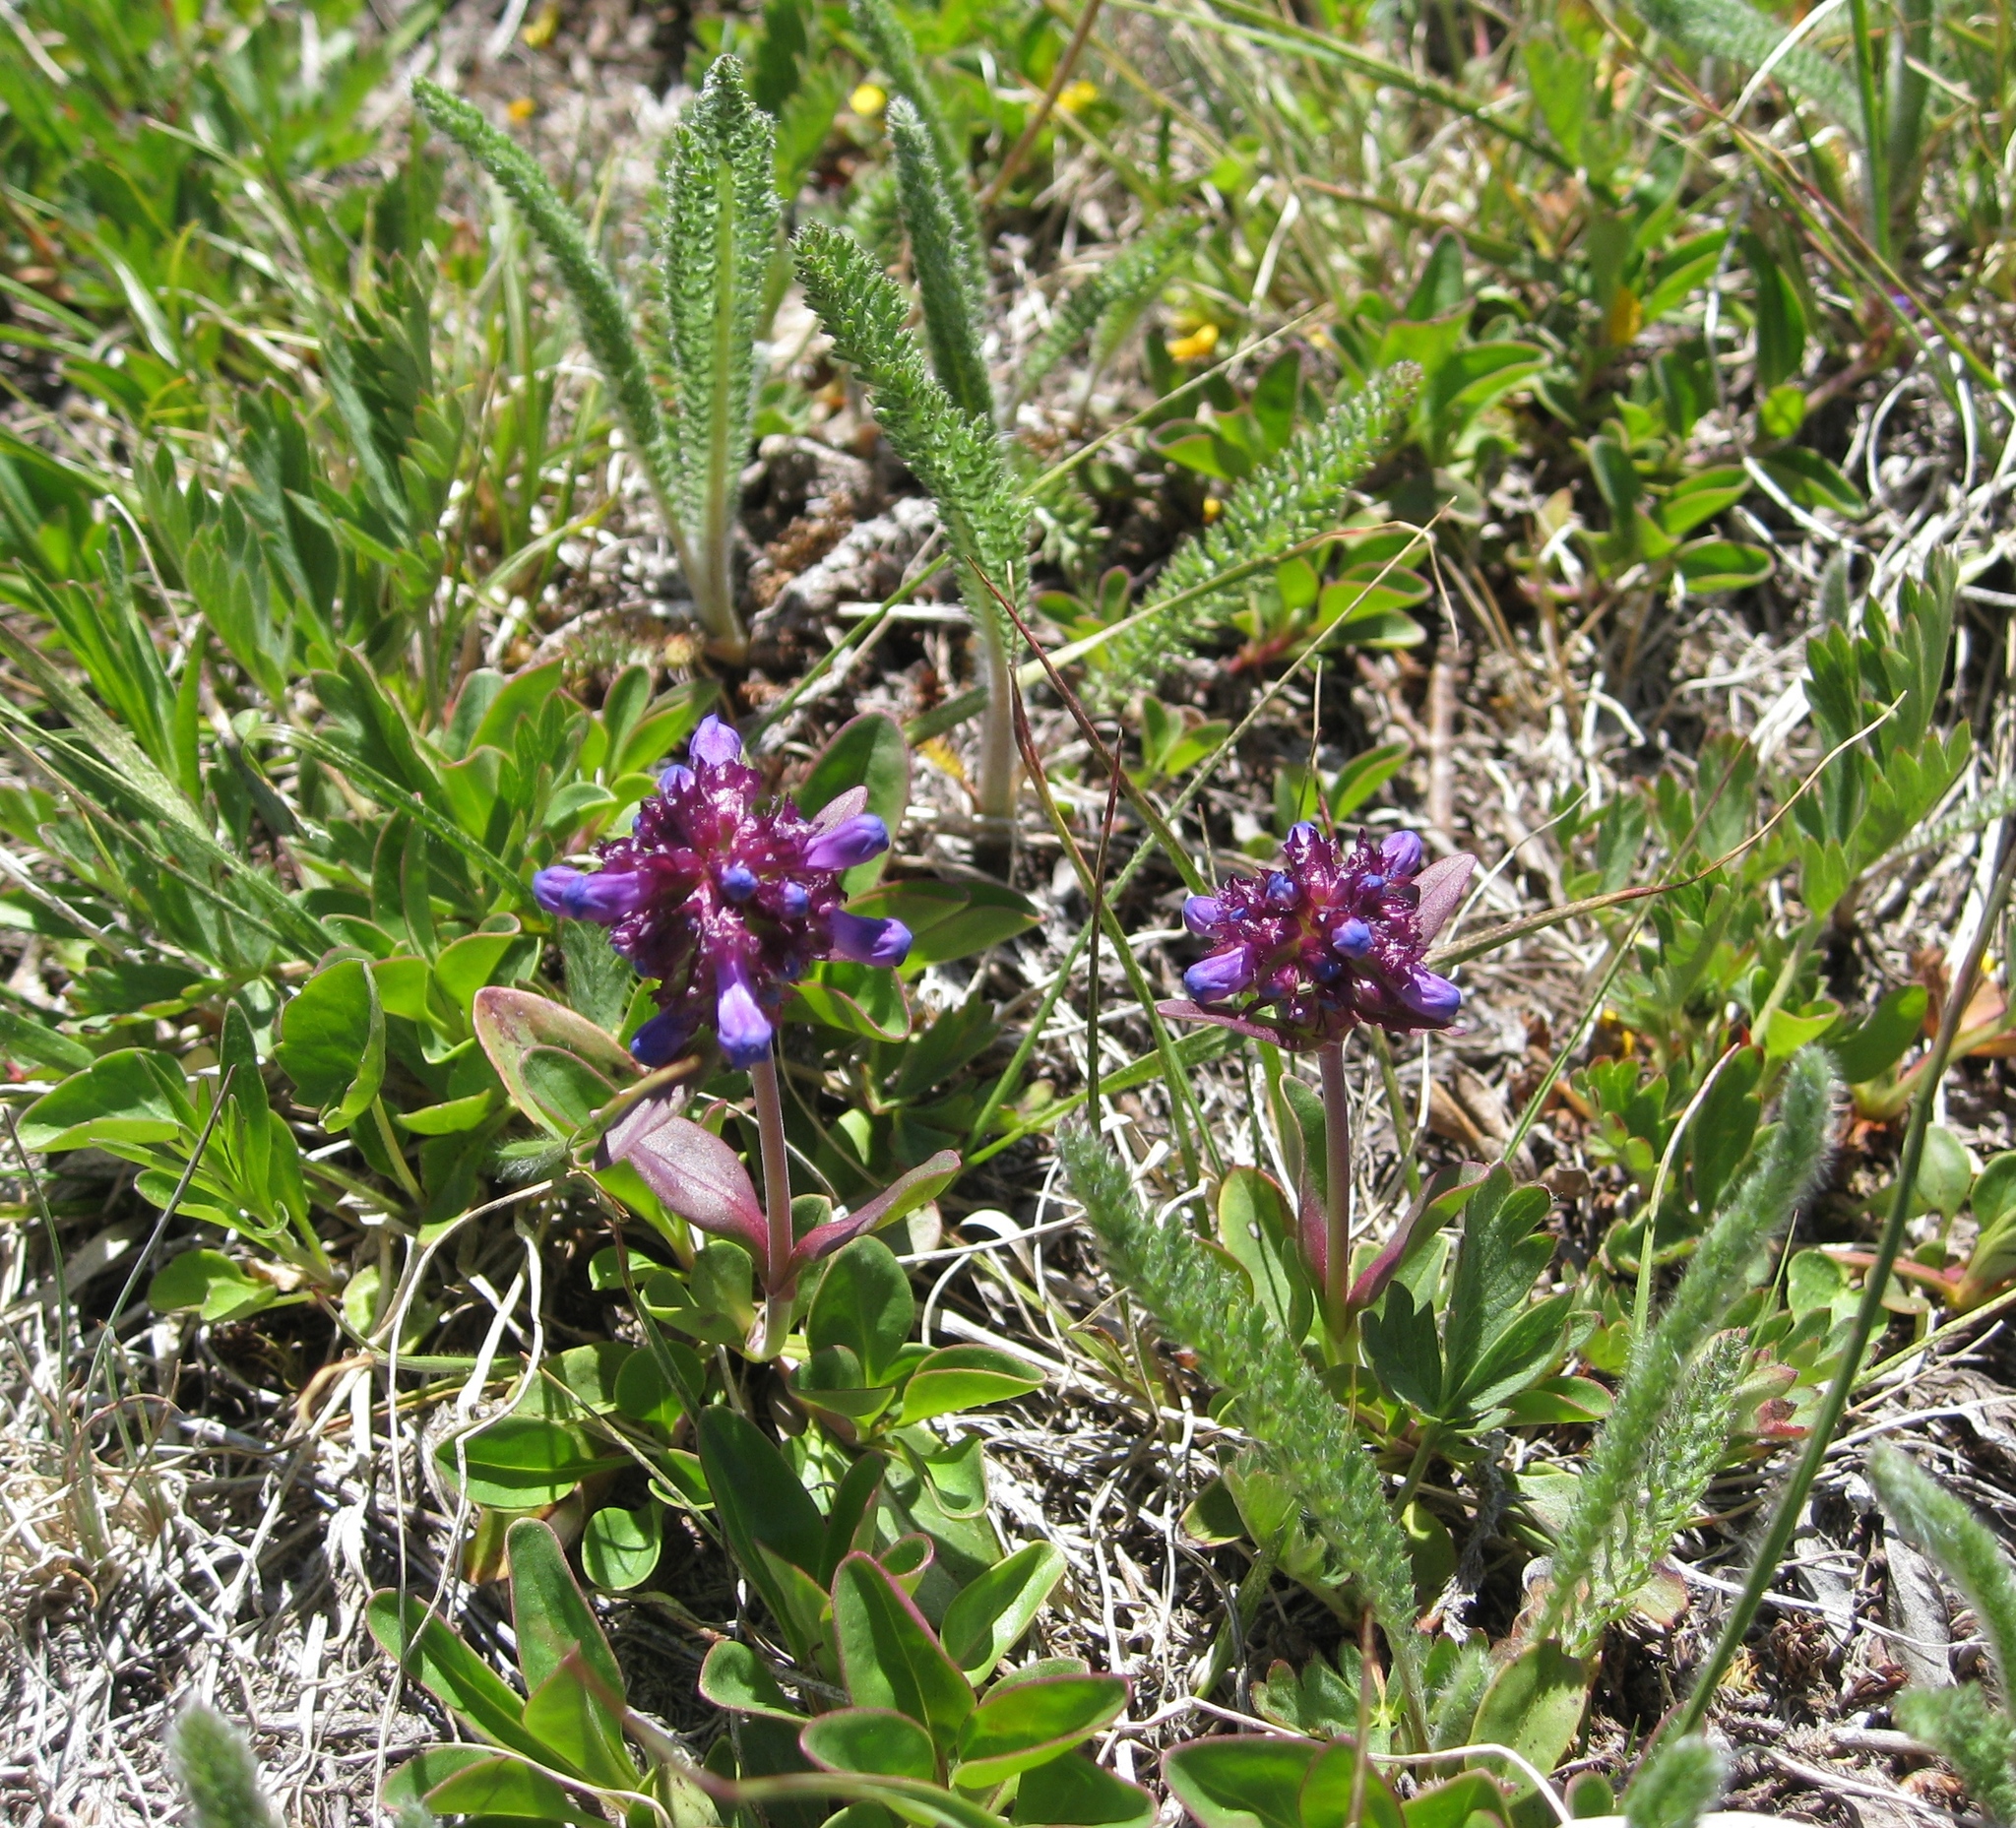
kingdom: Plantae
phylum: Tracheophyta
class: Magnoliopsida
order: Lamiales
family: Plantaginaceae
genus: Penstemon
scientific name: Penstemon procerus
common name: Small-flower penstemon
